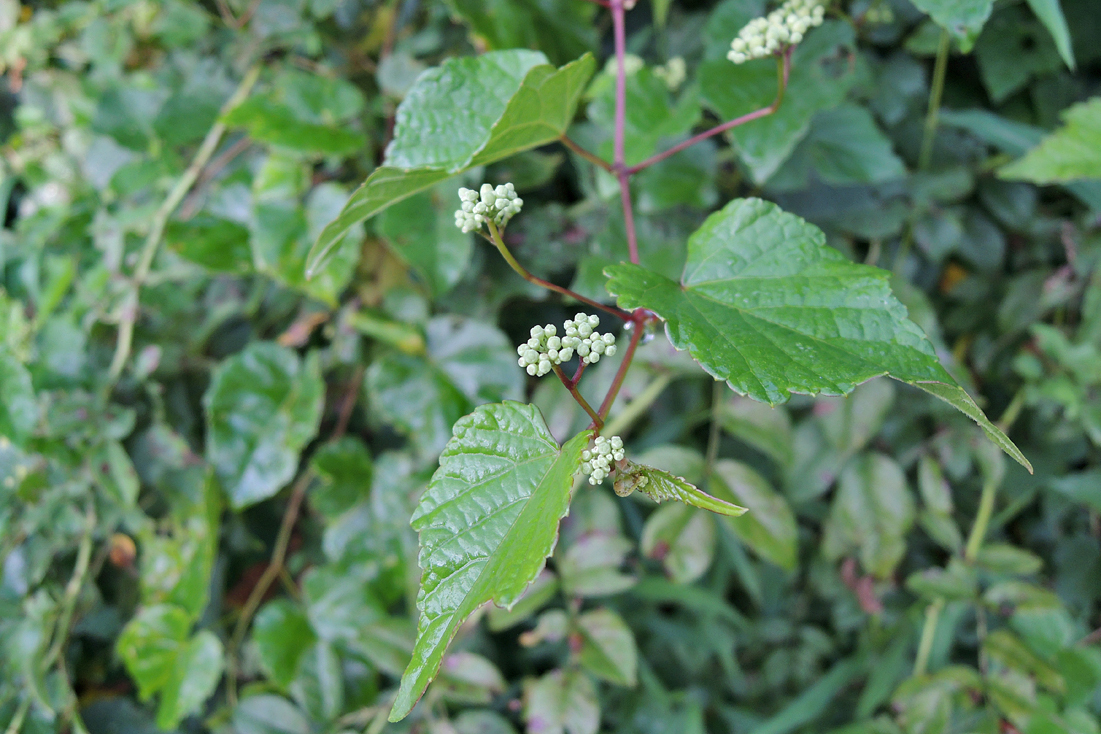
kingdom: Plantae
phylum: Tracheophyta
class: Magnoliopsida
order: Vitales
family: Vitaceae
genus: Ampelopsis
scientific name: Ampelopsis glandulosa
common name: Amur peppervine
